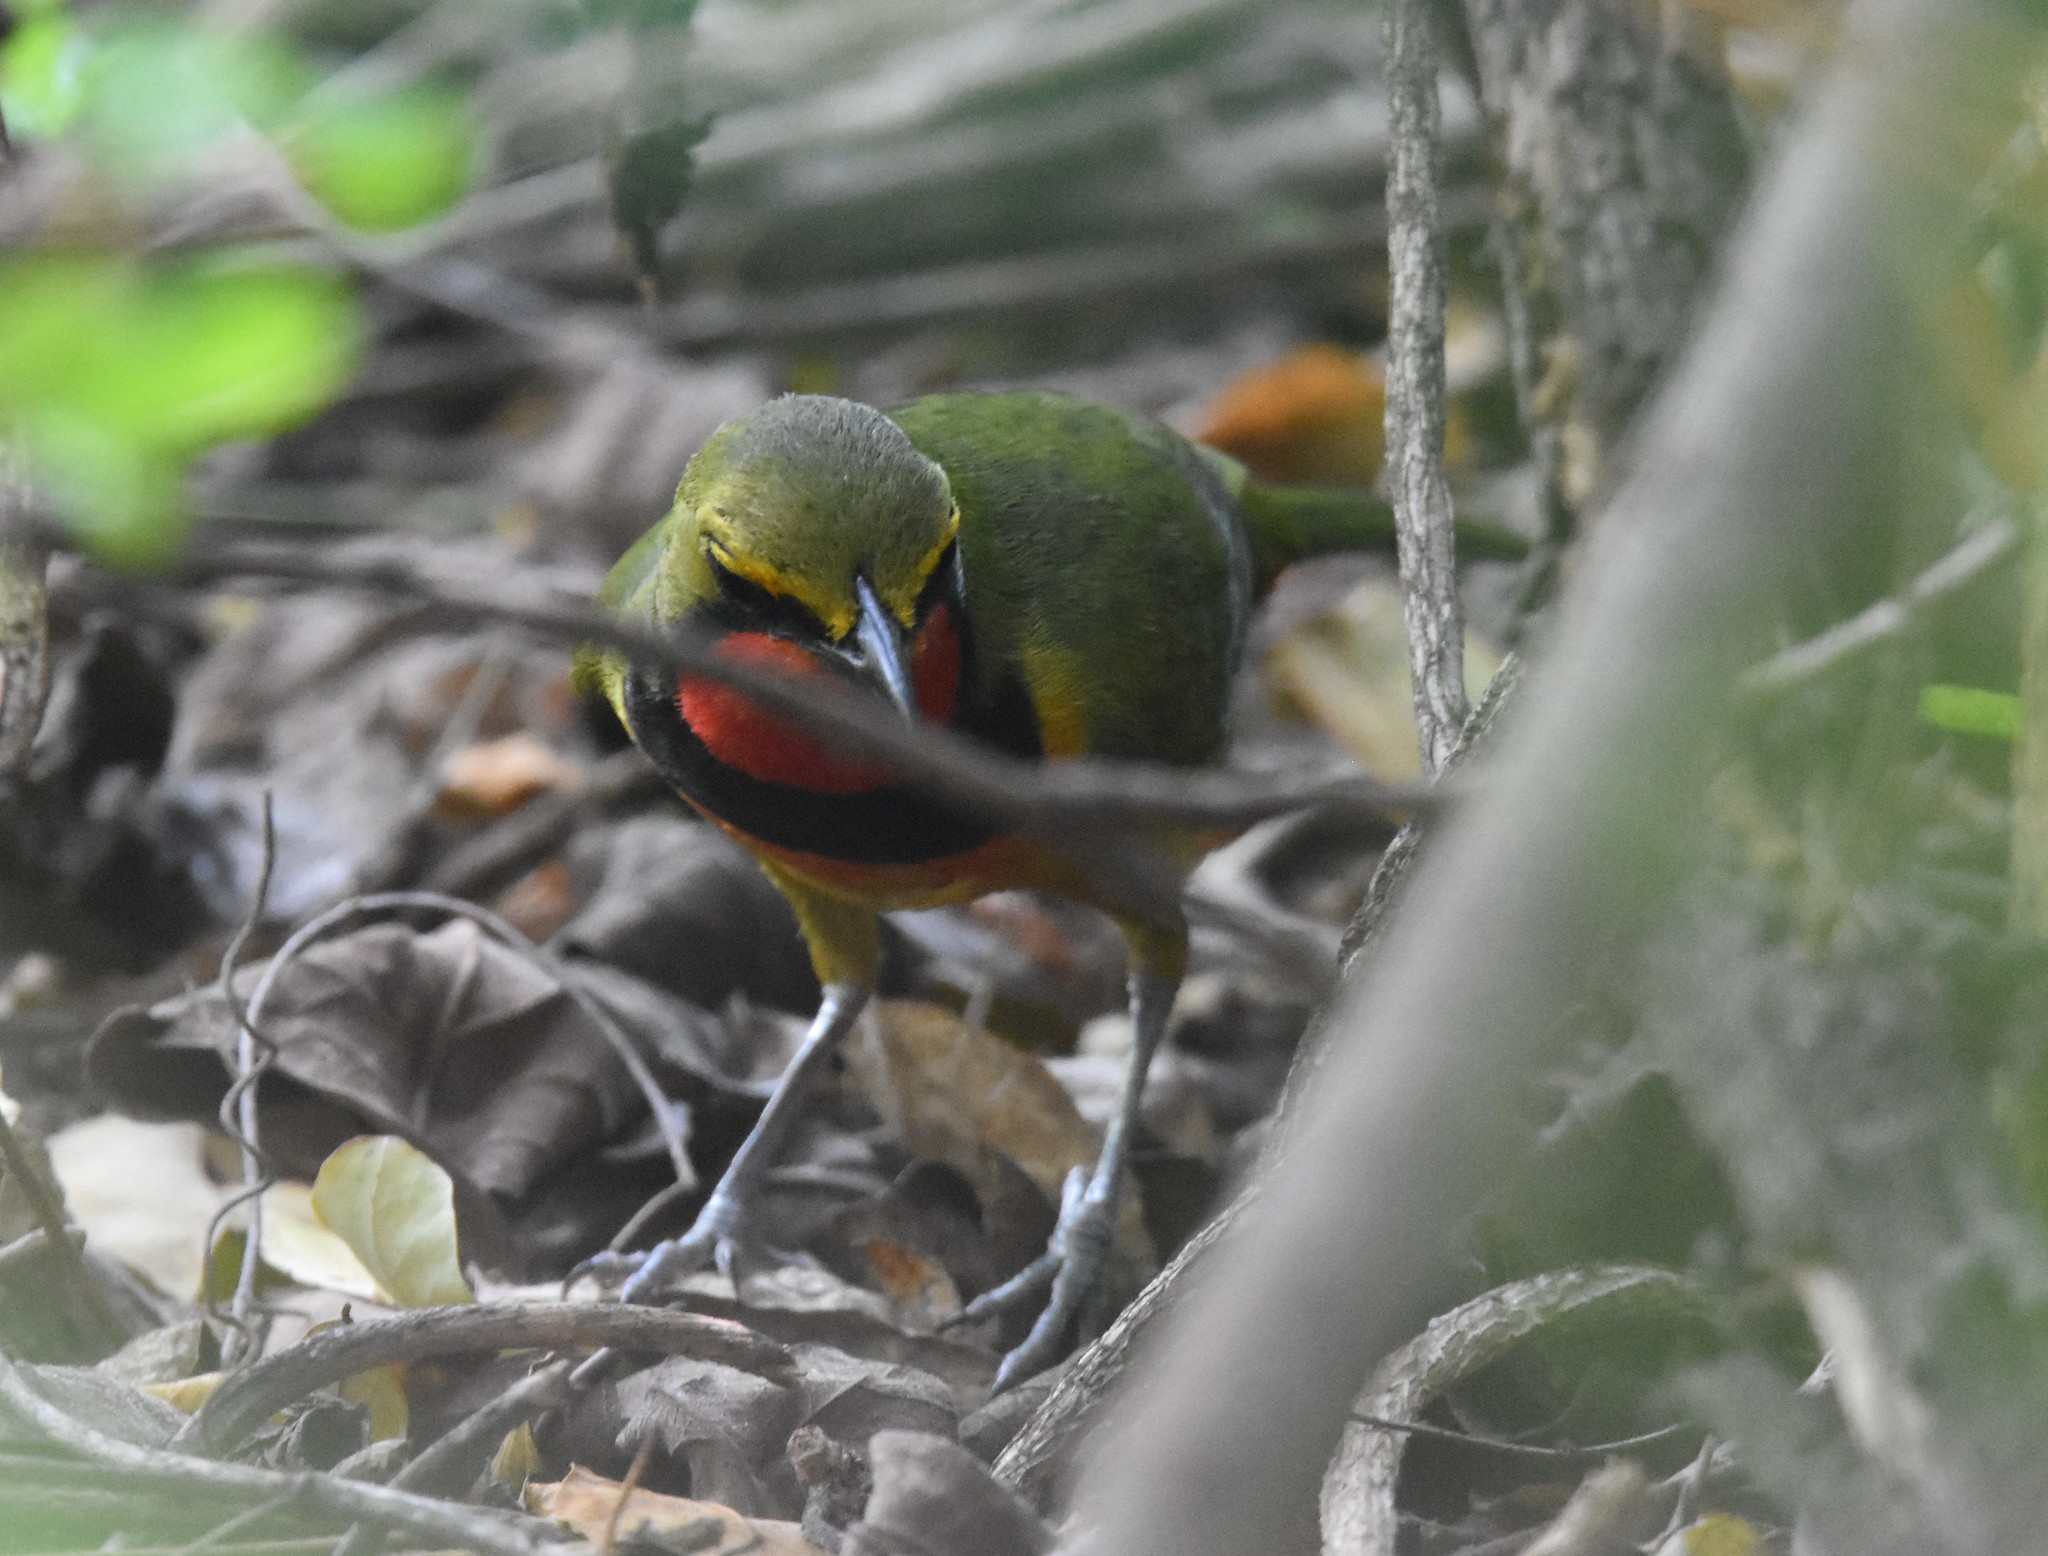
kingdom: Animalia
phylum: Chordata
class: Aves
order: Passeriformes
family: Malaconotidae
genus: Telophorus
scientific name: Telophorus viridis
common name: Gorgeous bushshrike
